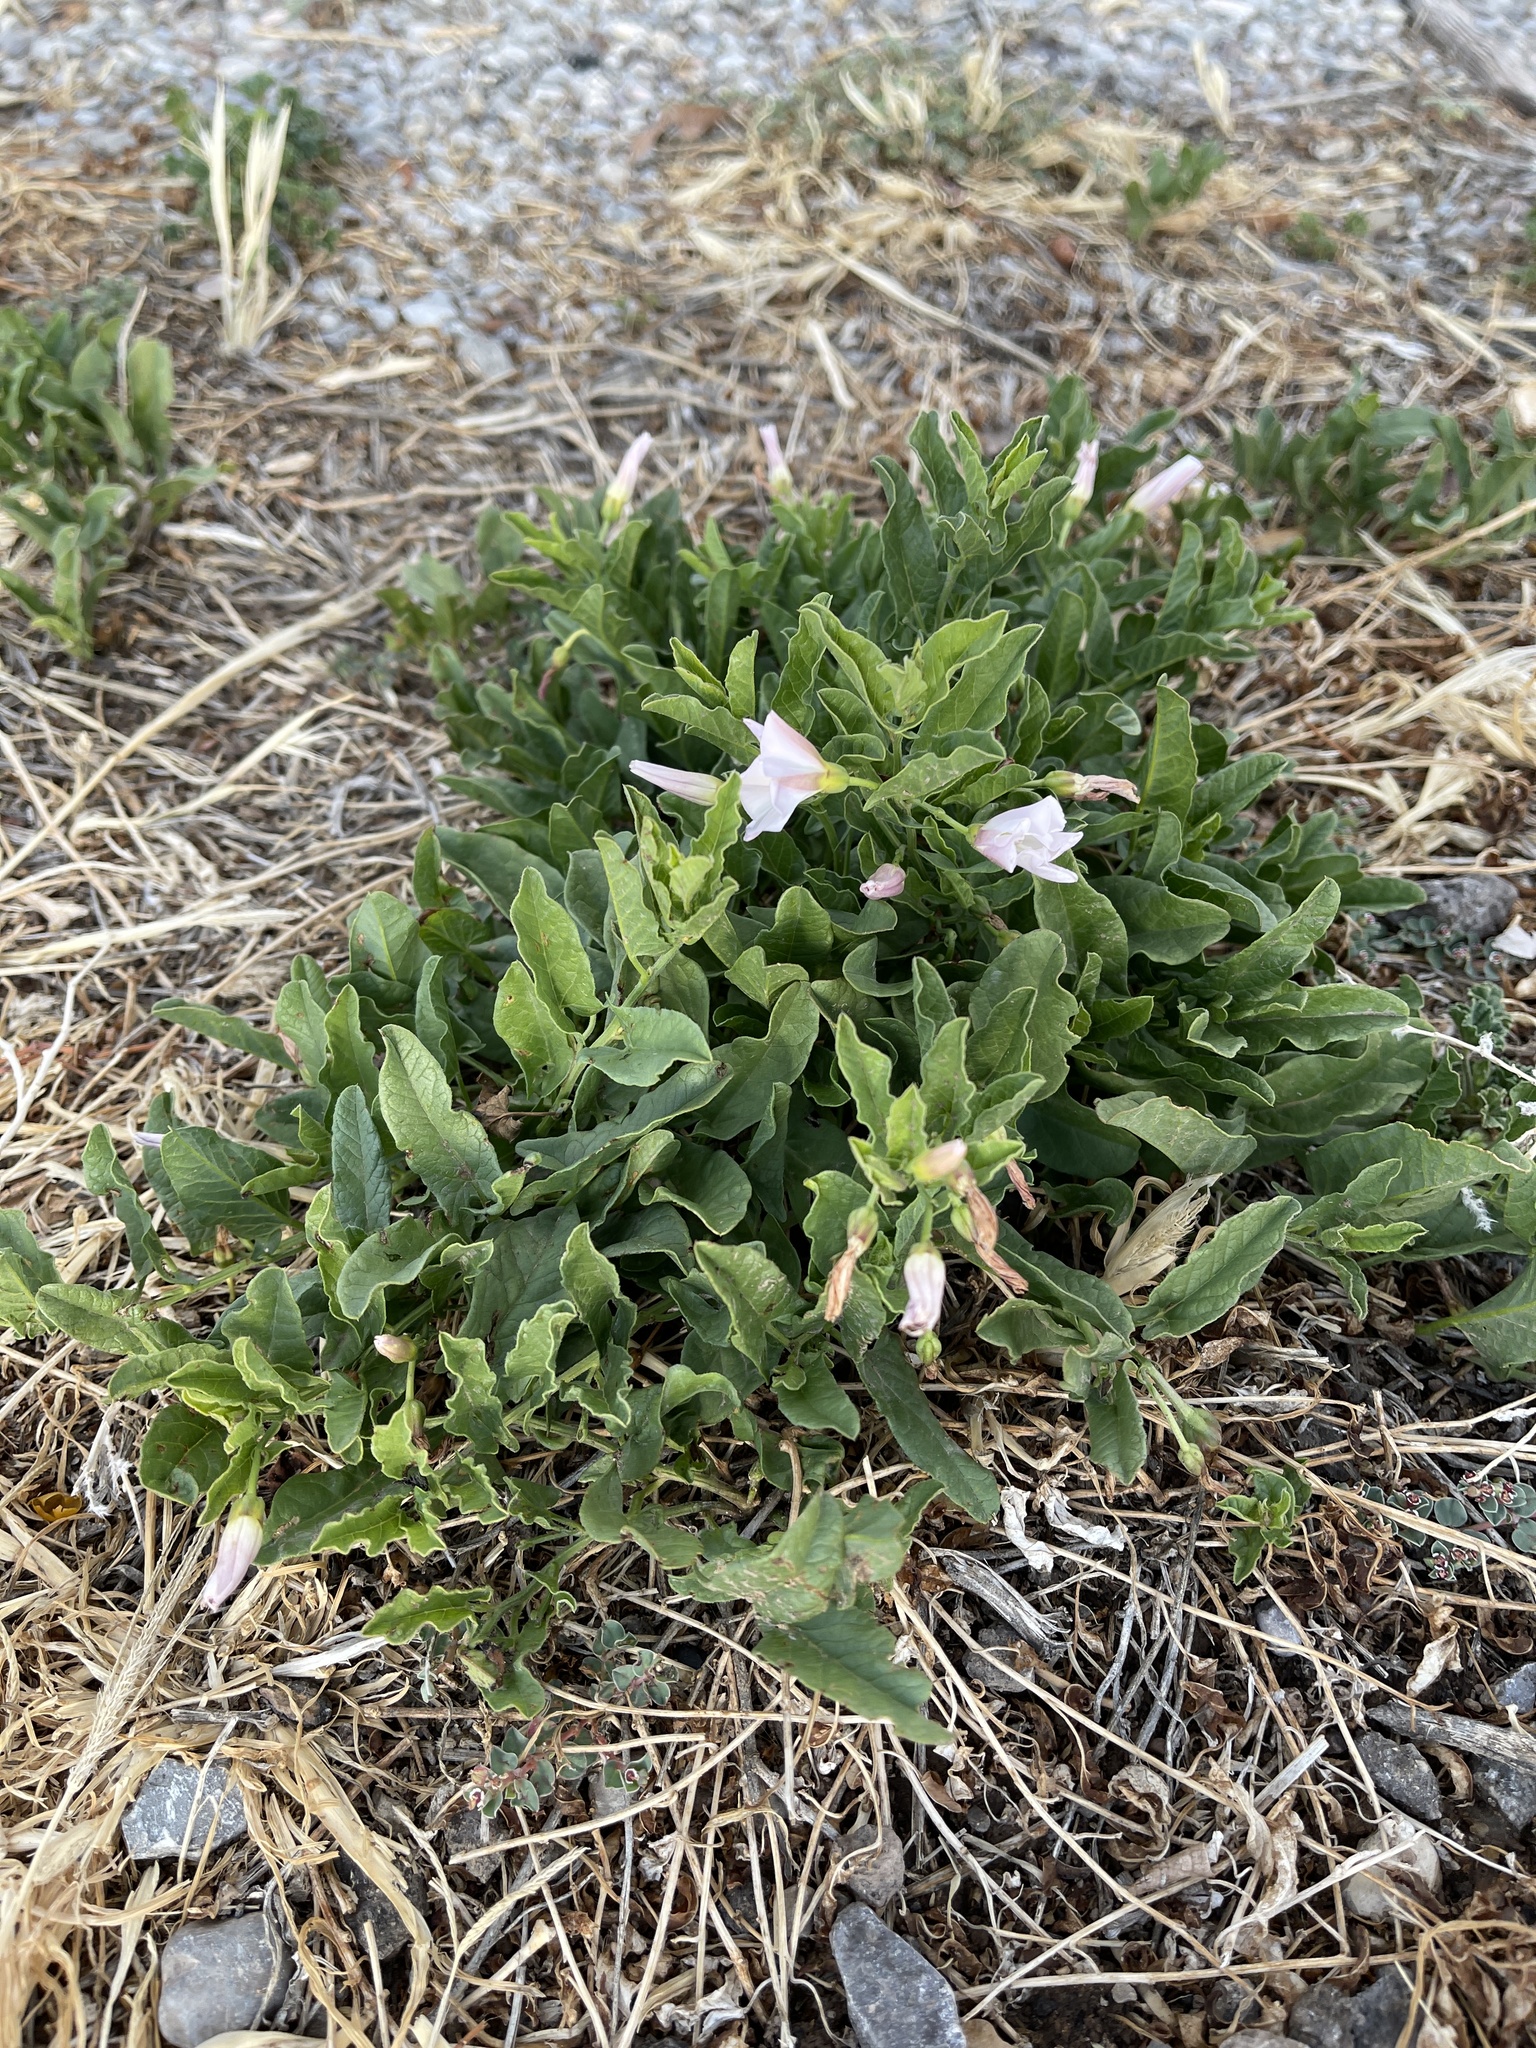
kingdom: Plantae
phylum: Tracheophyta
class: Magnoliopsida
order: Solanales
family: Convolvulaceae
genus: Convolvulus
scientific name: Convolvulus arvensis
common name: Field bindweed
